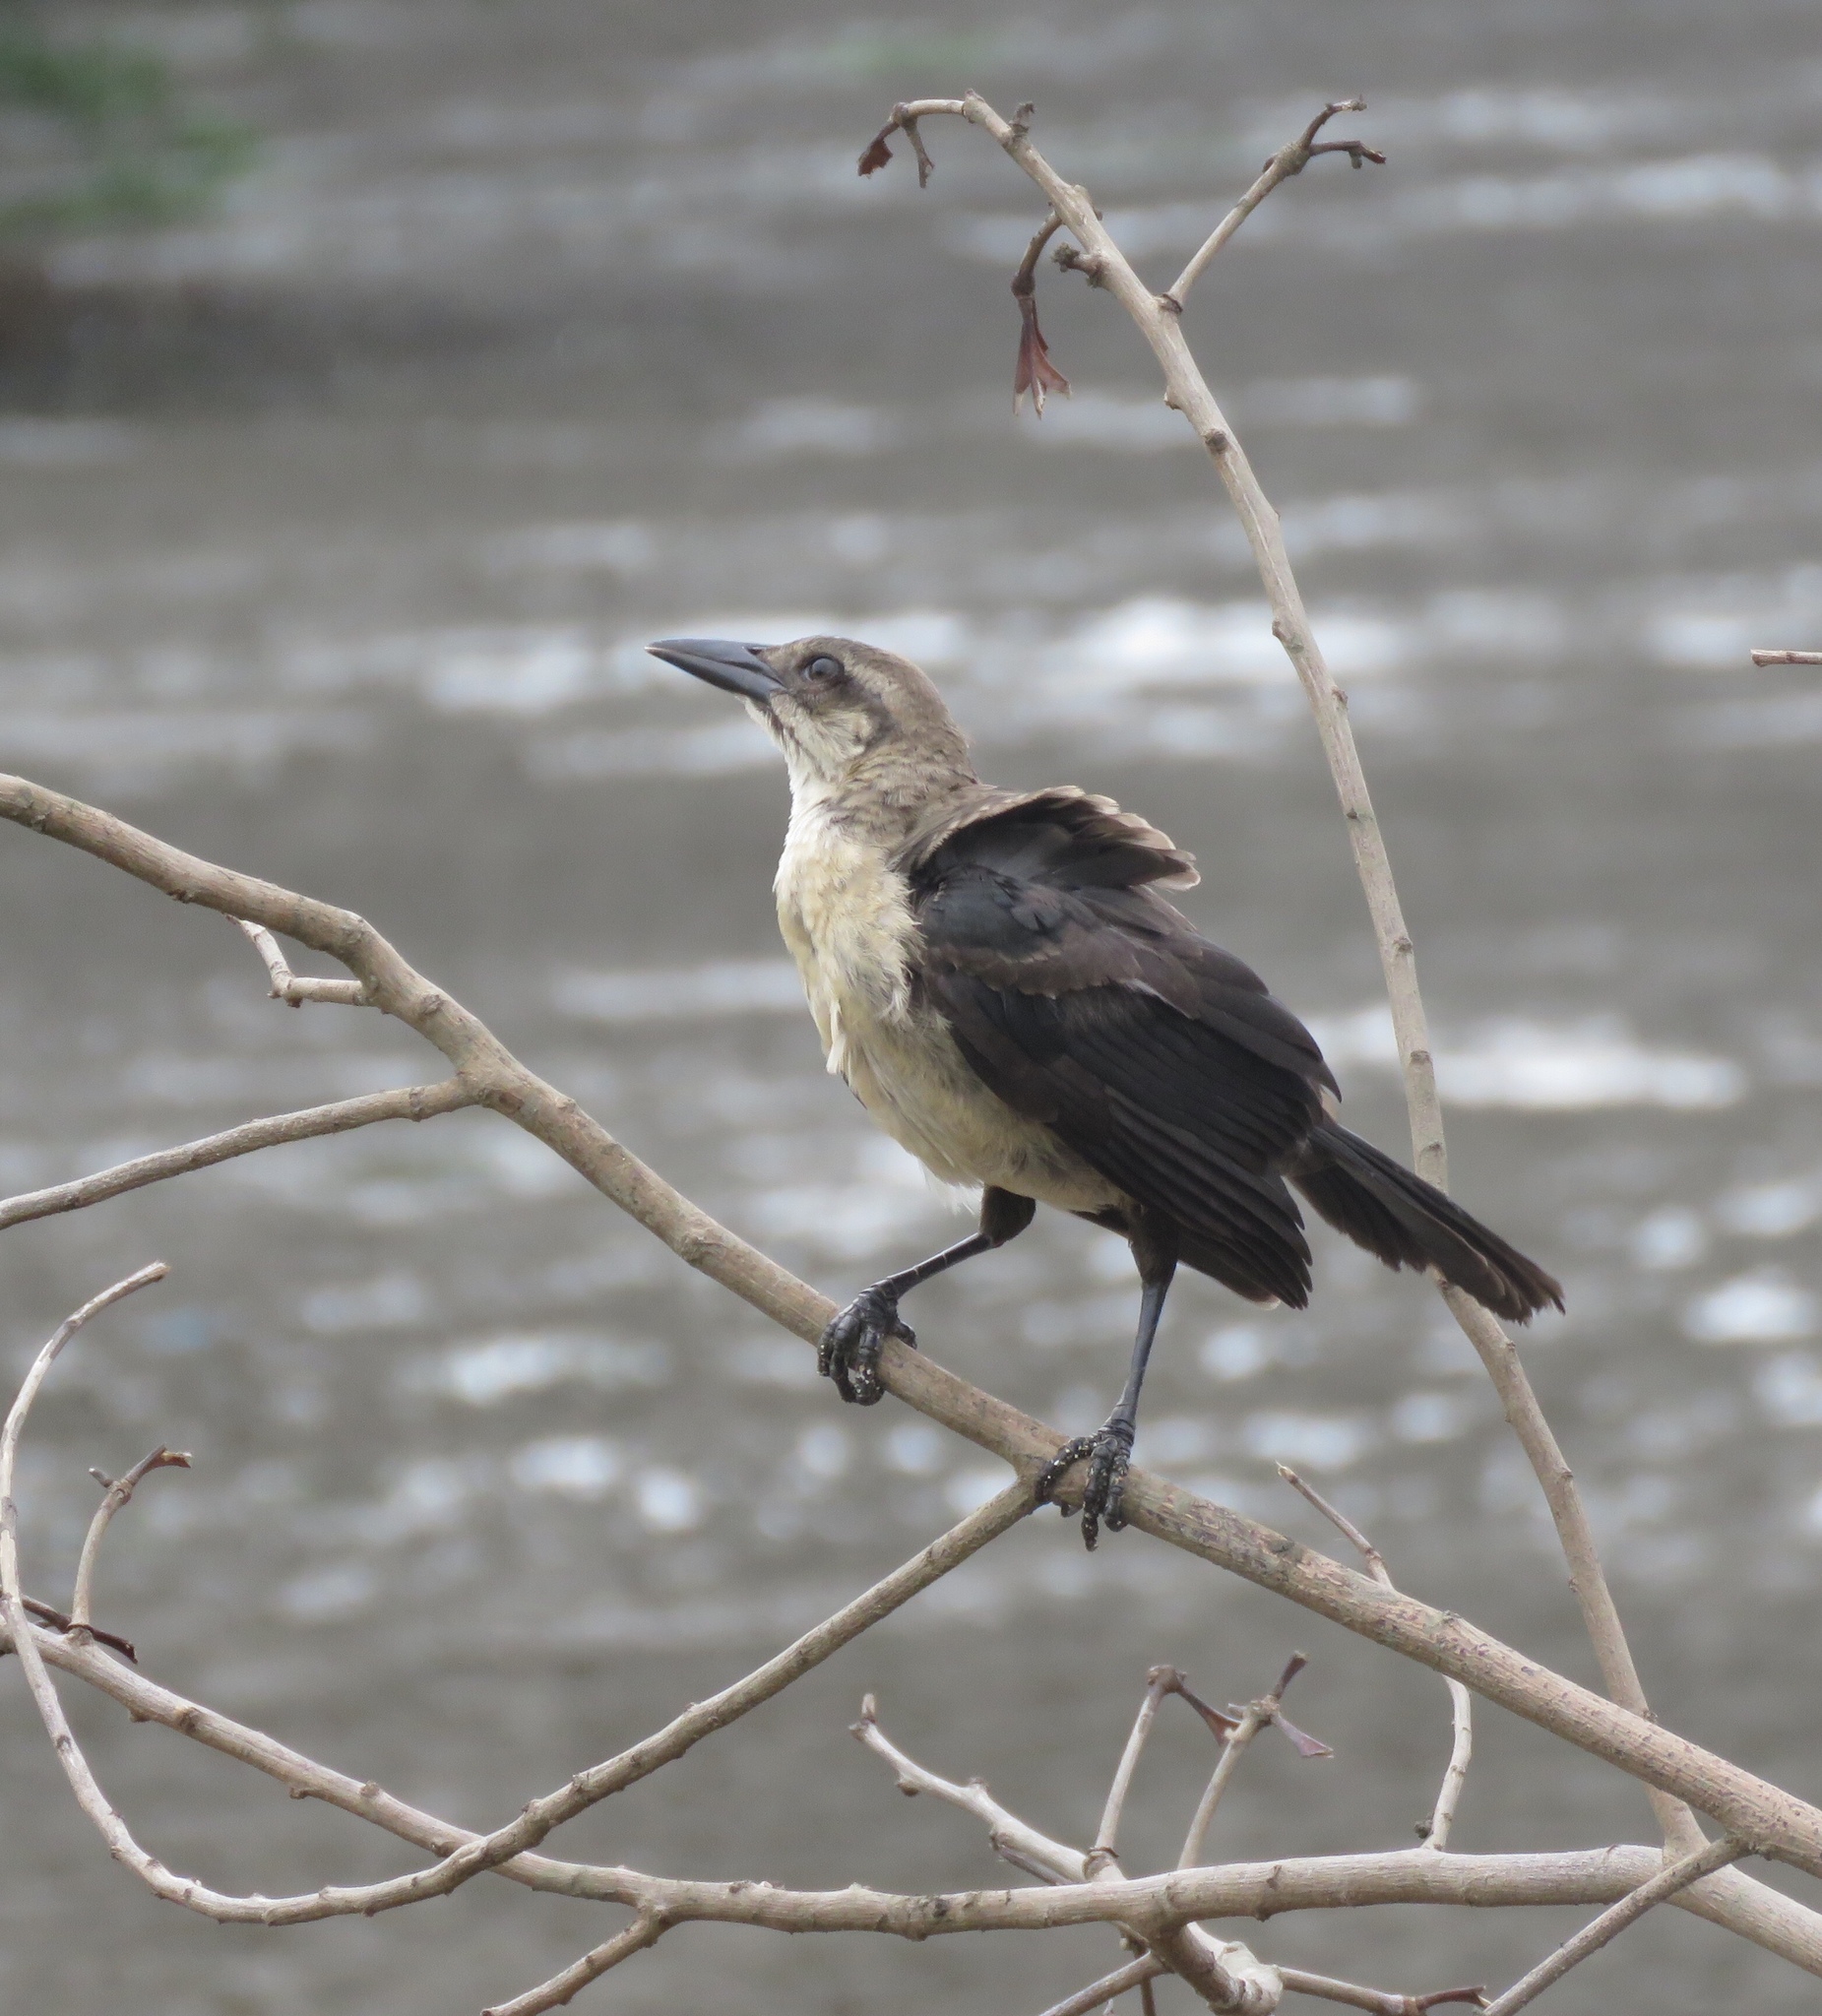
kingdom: Animalia
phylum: Chordata
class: Aves
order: Passeriformes
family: Icteridae
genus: Quiscalus
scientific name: Quiscalus mexicanus
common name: Great-tailed grackle
